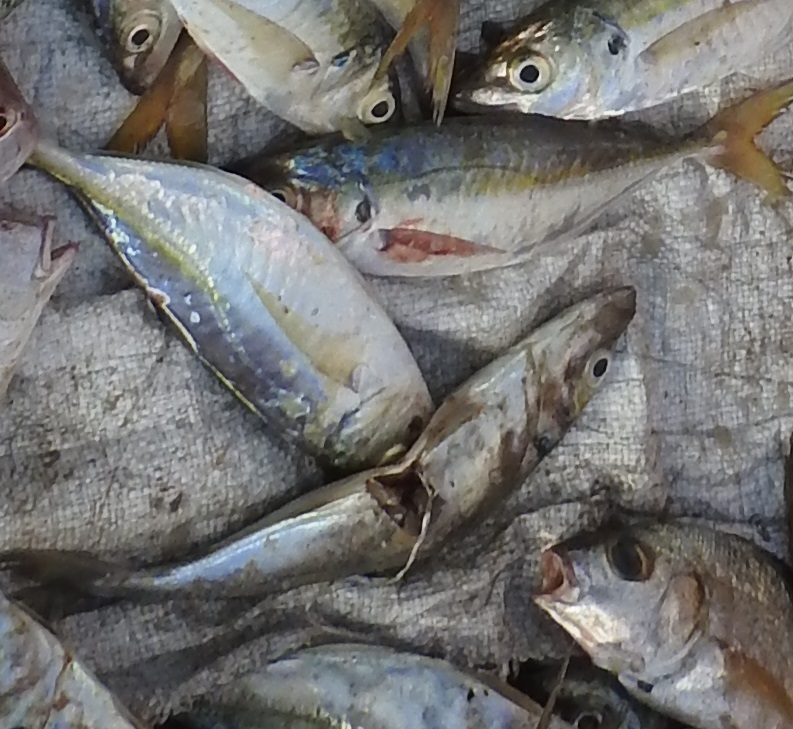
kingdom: Animalia
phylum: Chordata
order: Perciformes
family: Carangidae
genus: Caranx
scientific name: Caranx rhonchus
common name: False scad
